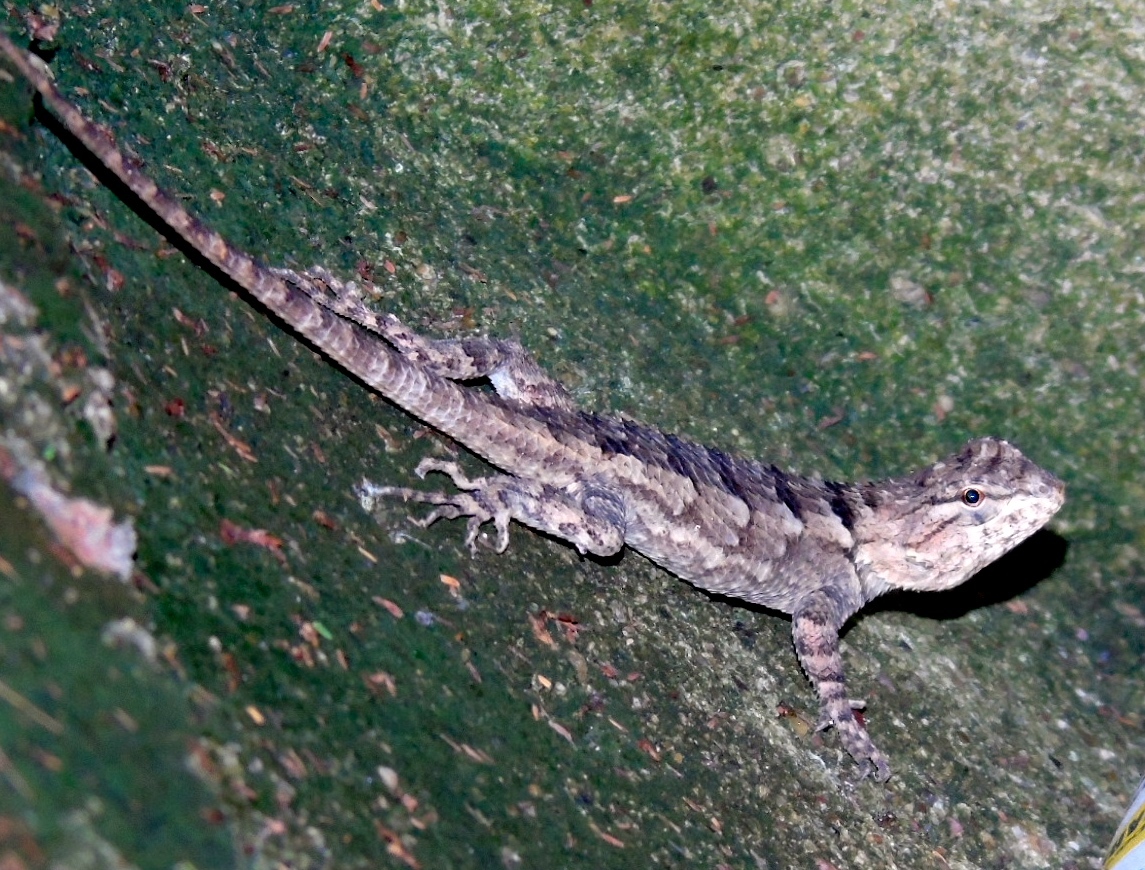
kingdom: Animalia
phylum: Chordata
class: Squamata
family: Phrynosomatidae
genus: Sceloporus
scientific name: Sceloporus
